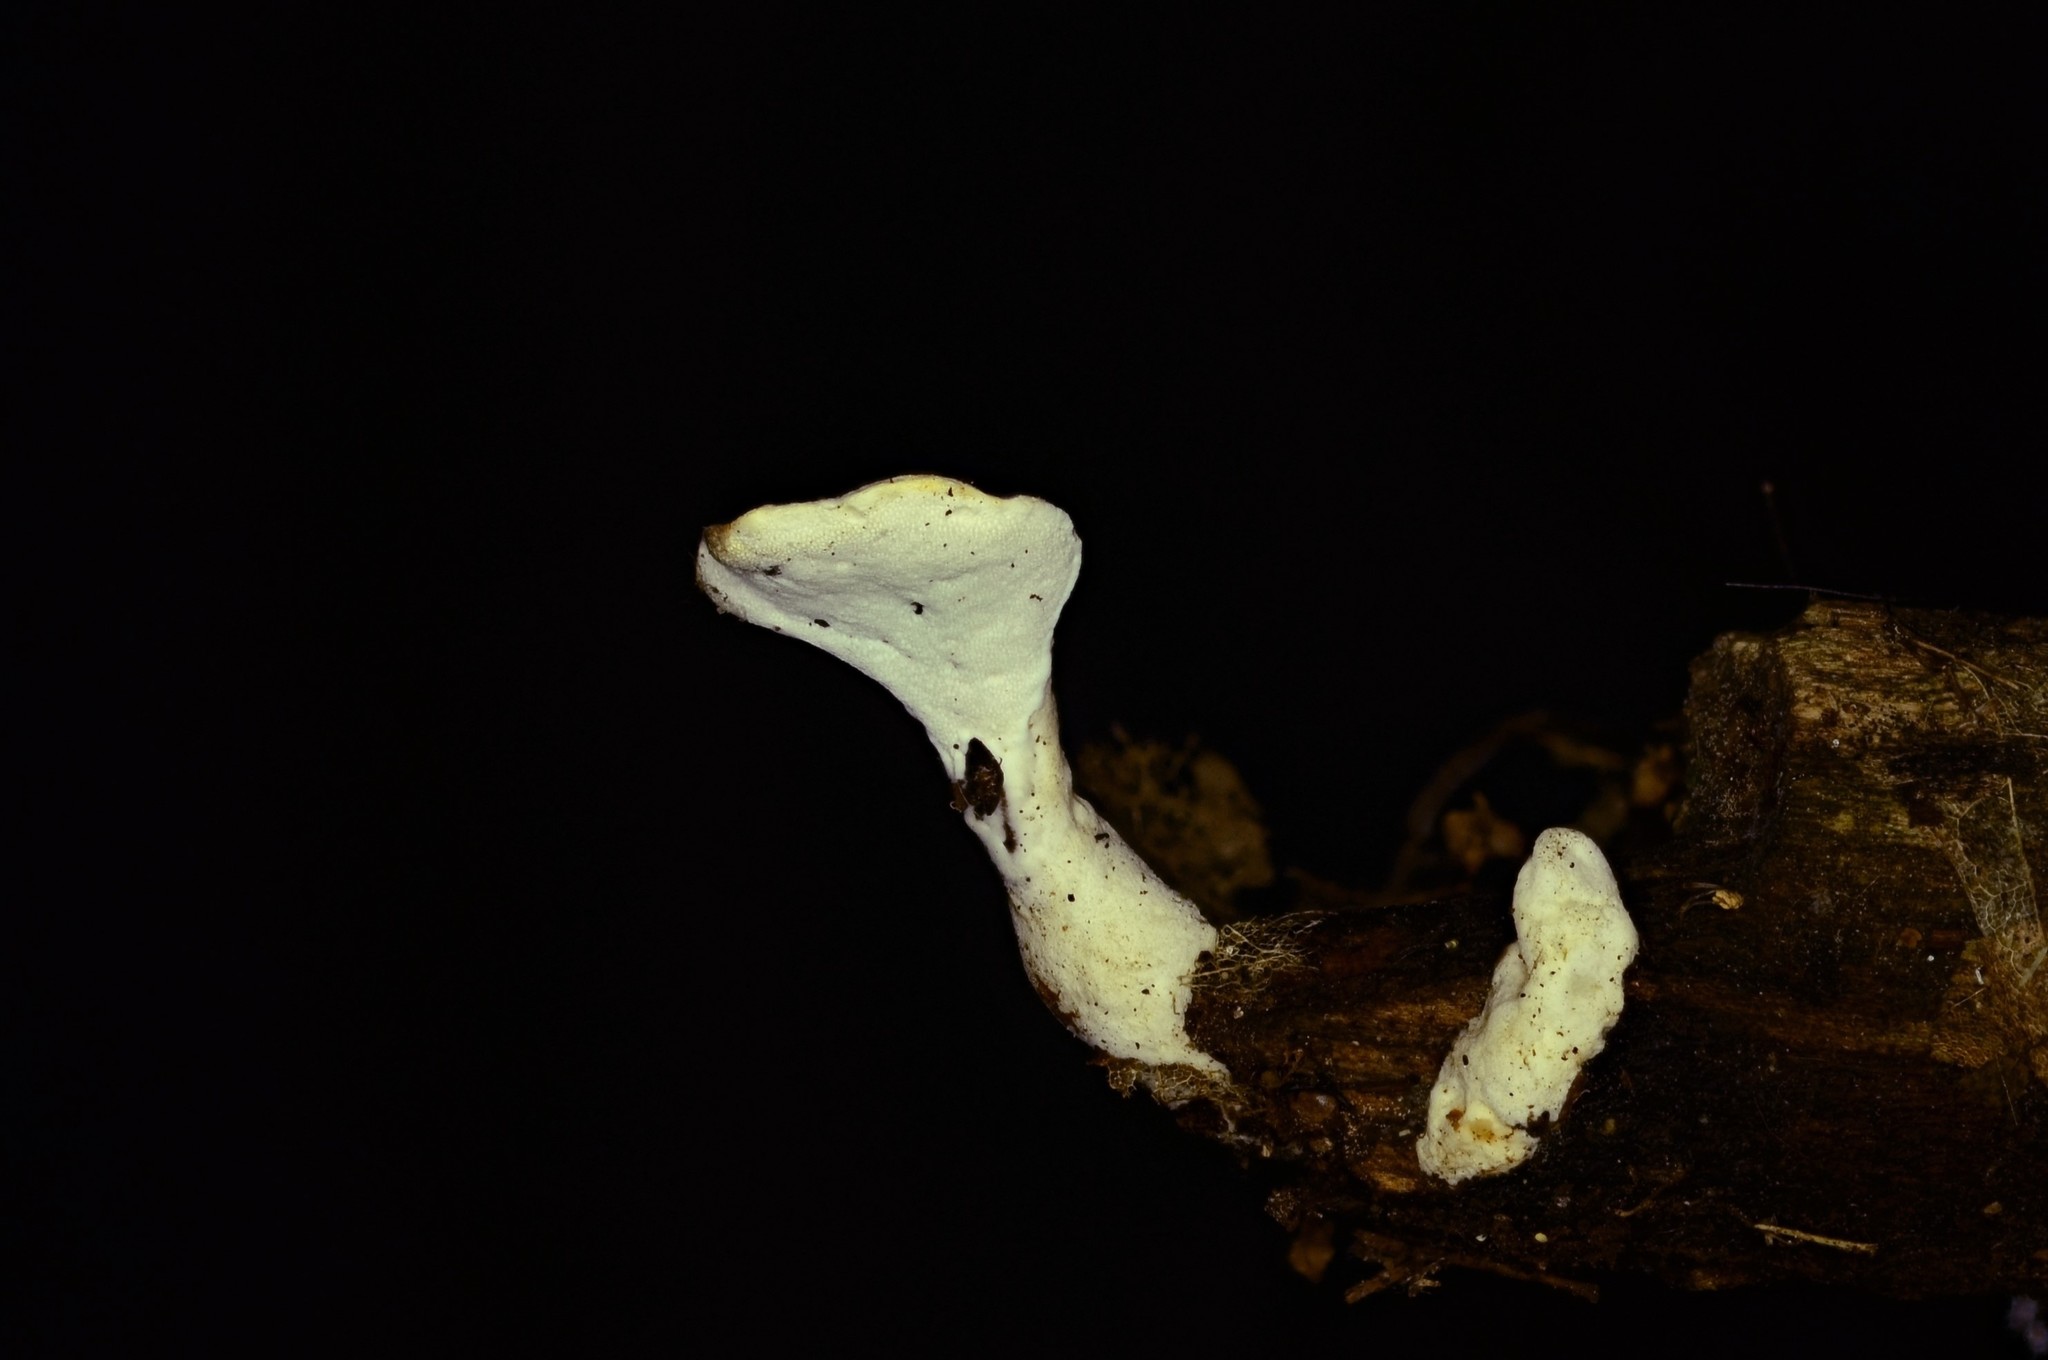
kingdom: Fungi
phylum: Basidiomycota
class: Agaricomycetes
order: Polyporales
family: Steccherinaceae
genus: Loweomyces
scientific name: Loweomyces fractipes
